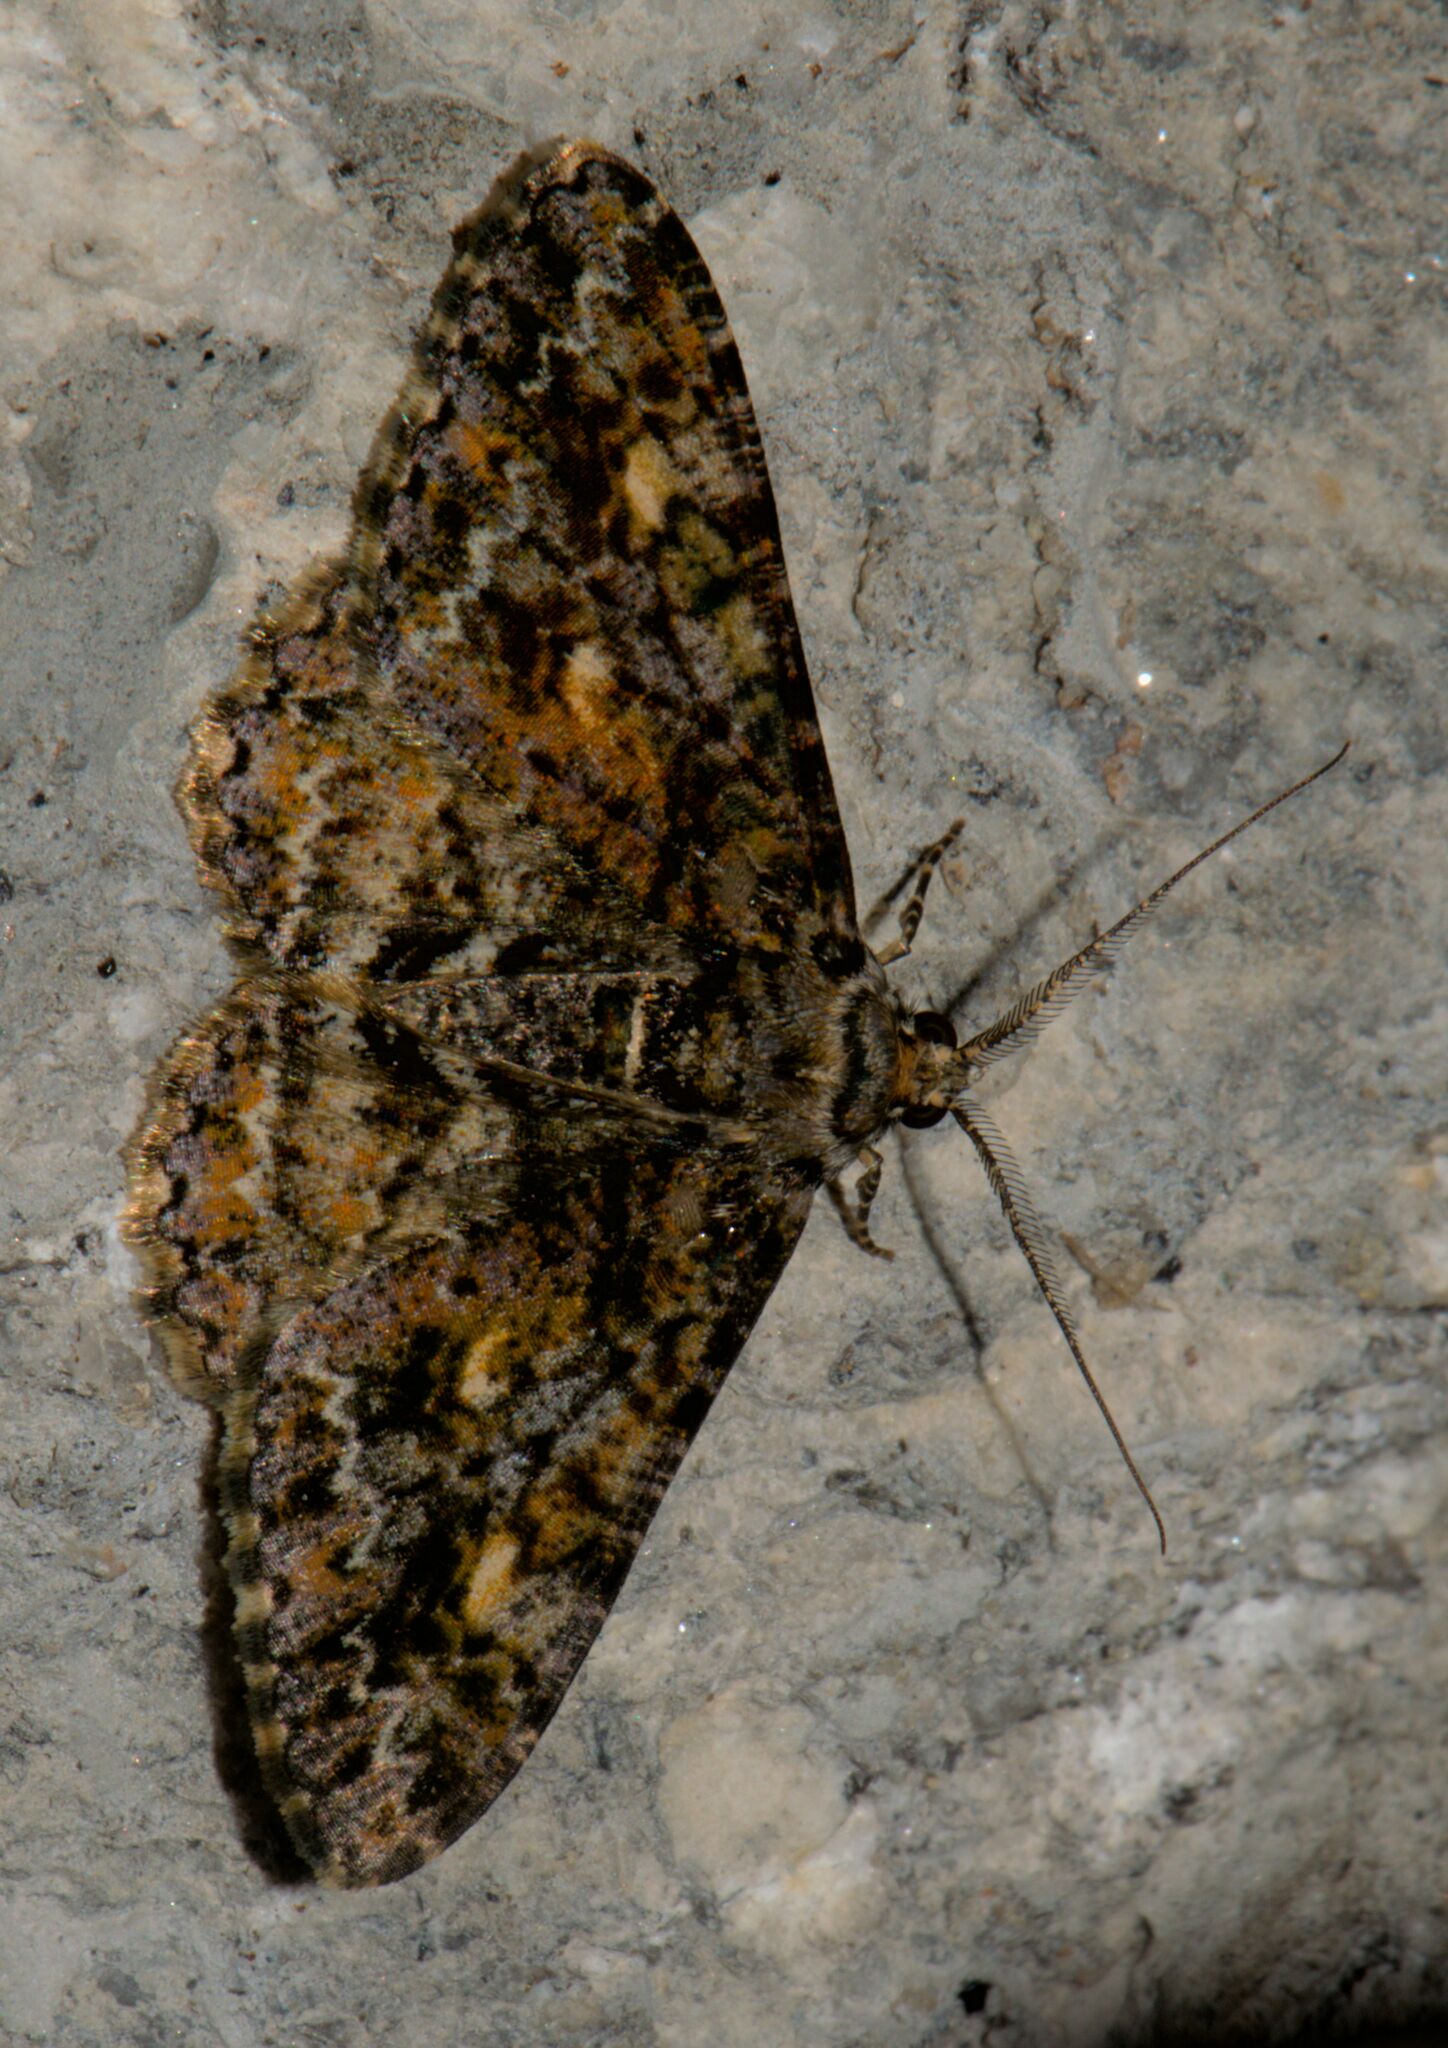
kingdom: Animalia
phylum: Arthropoda
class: Insecta
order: Lepidoptera
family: Geometridae
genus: Alcis
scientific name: Alcis variegata
